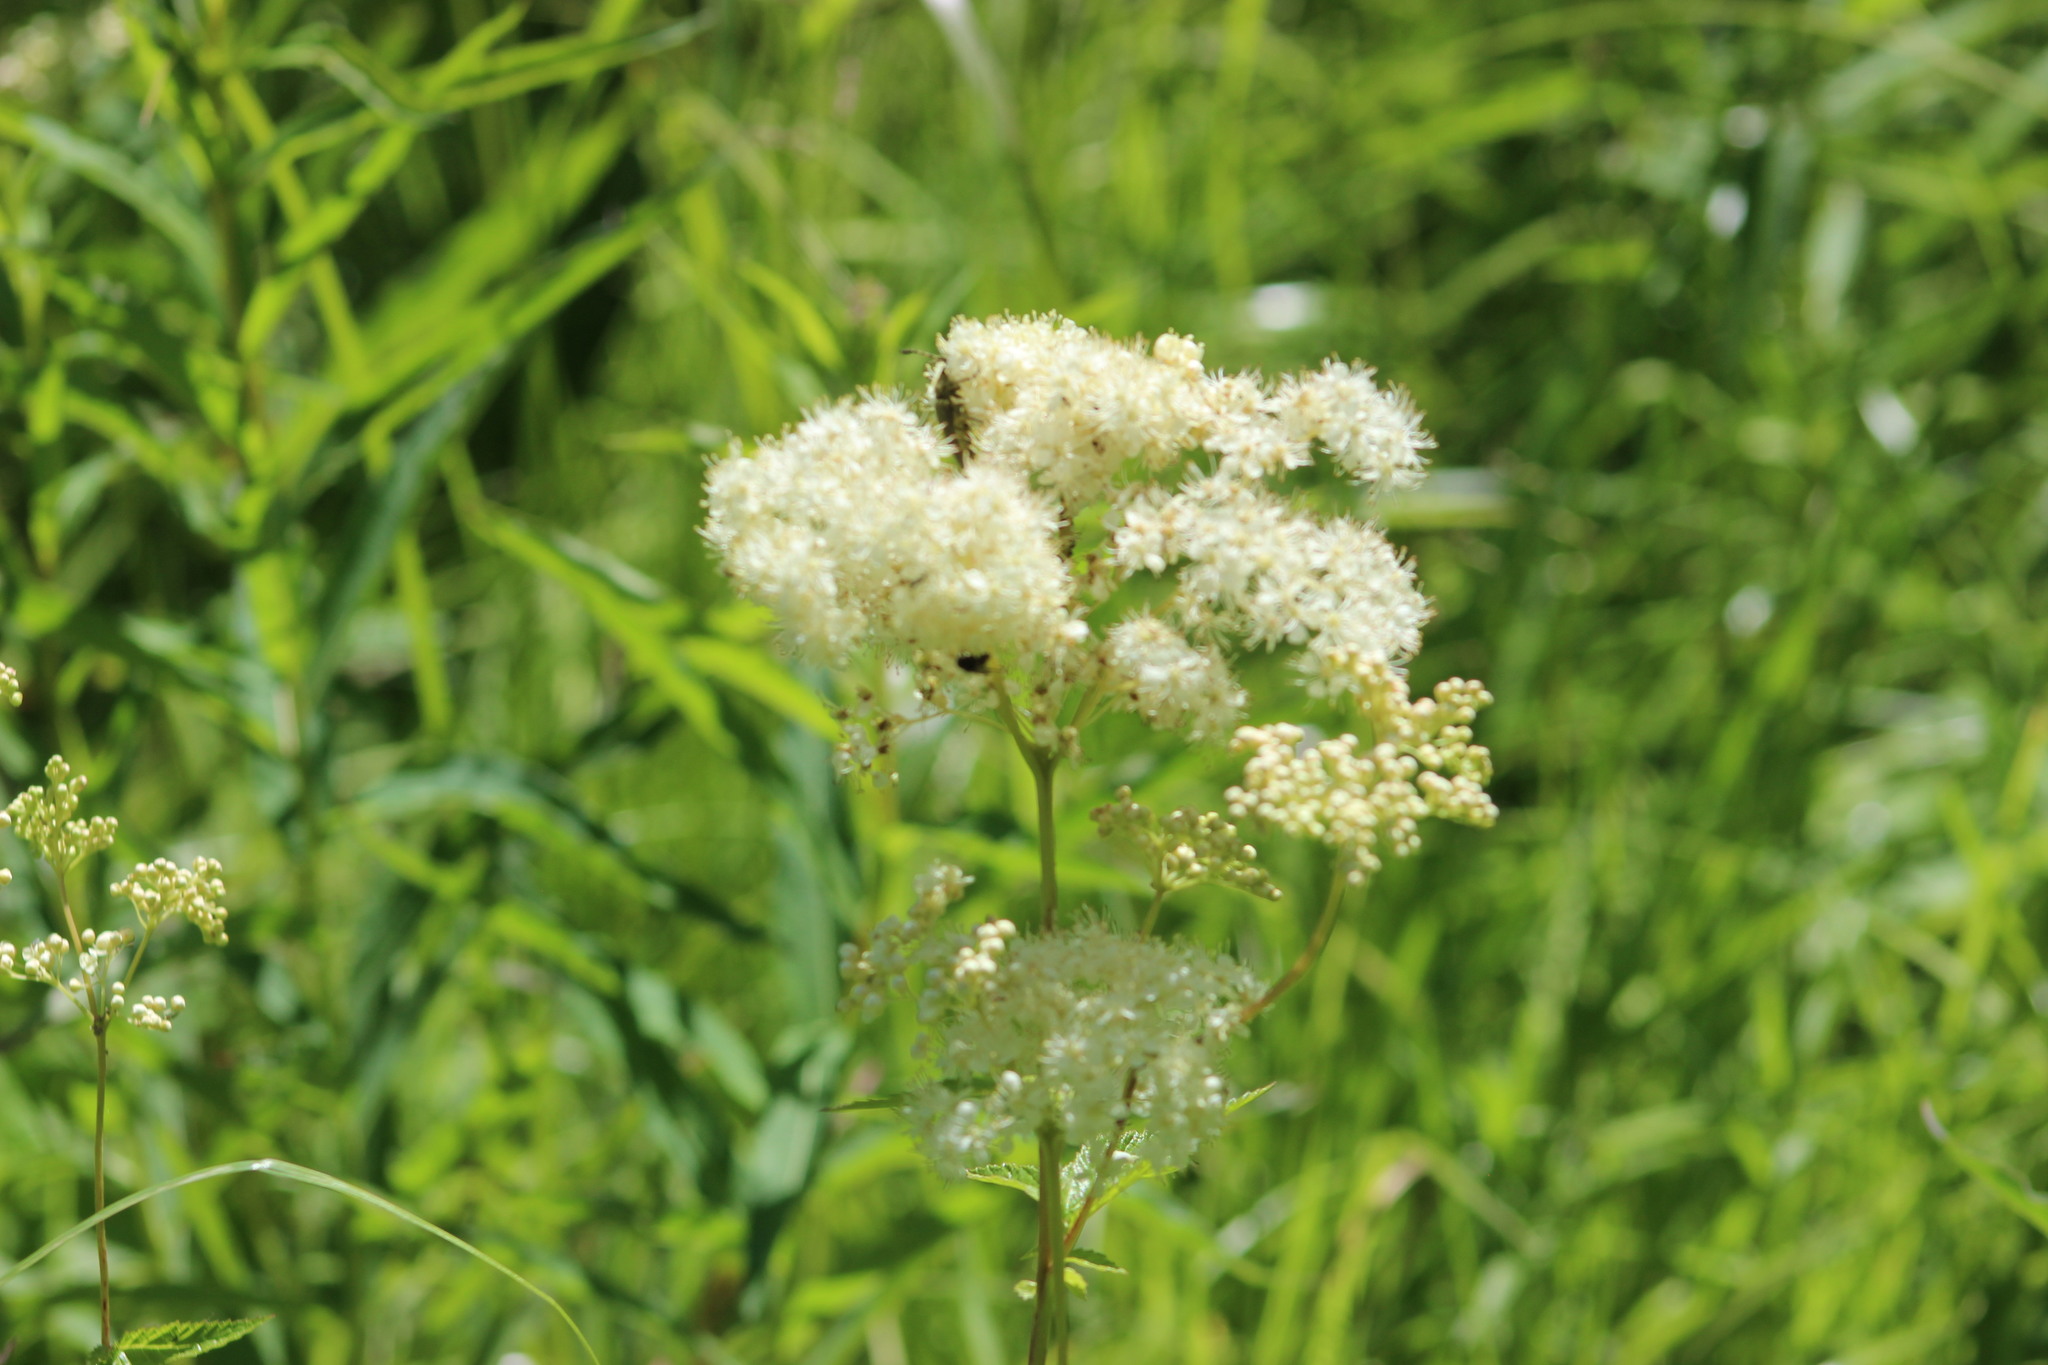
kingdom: Plantae
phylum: Tracheophyta
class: Magnoliopsida
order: Rosales
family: Rosaceae
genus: Filipendula
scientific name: Filipendula ulmaria
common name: Meadowsweet
